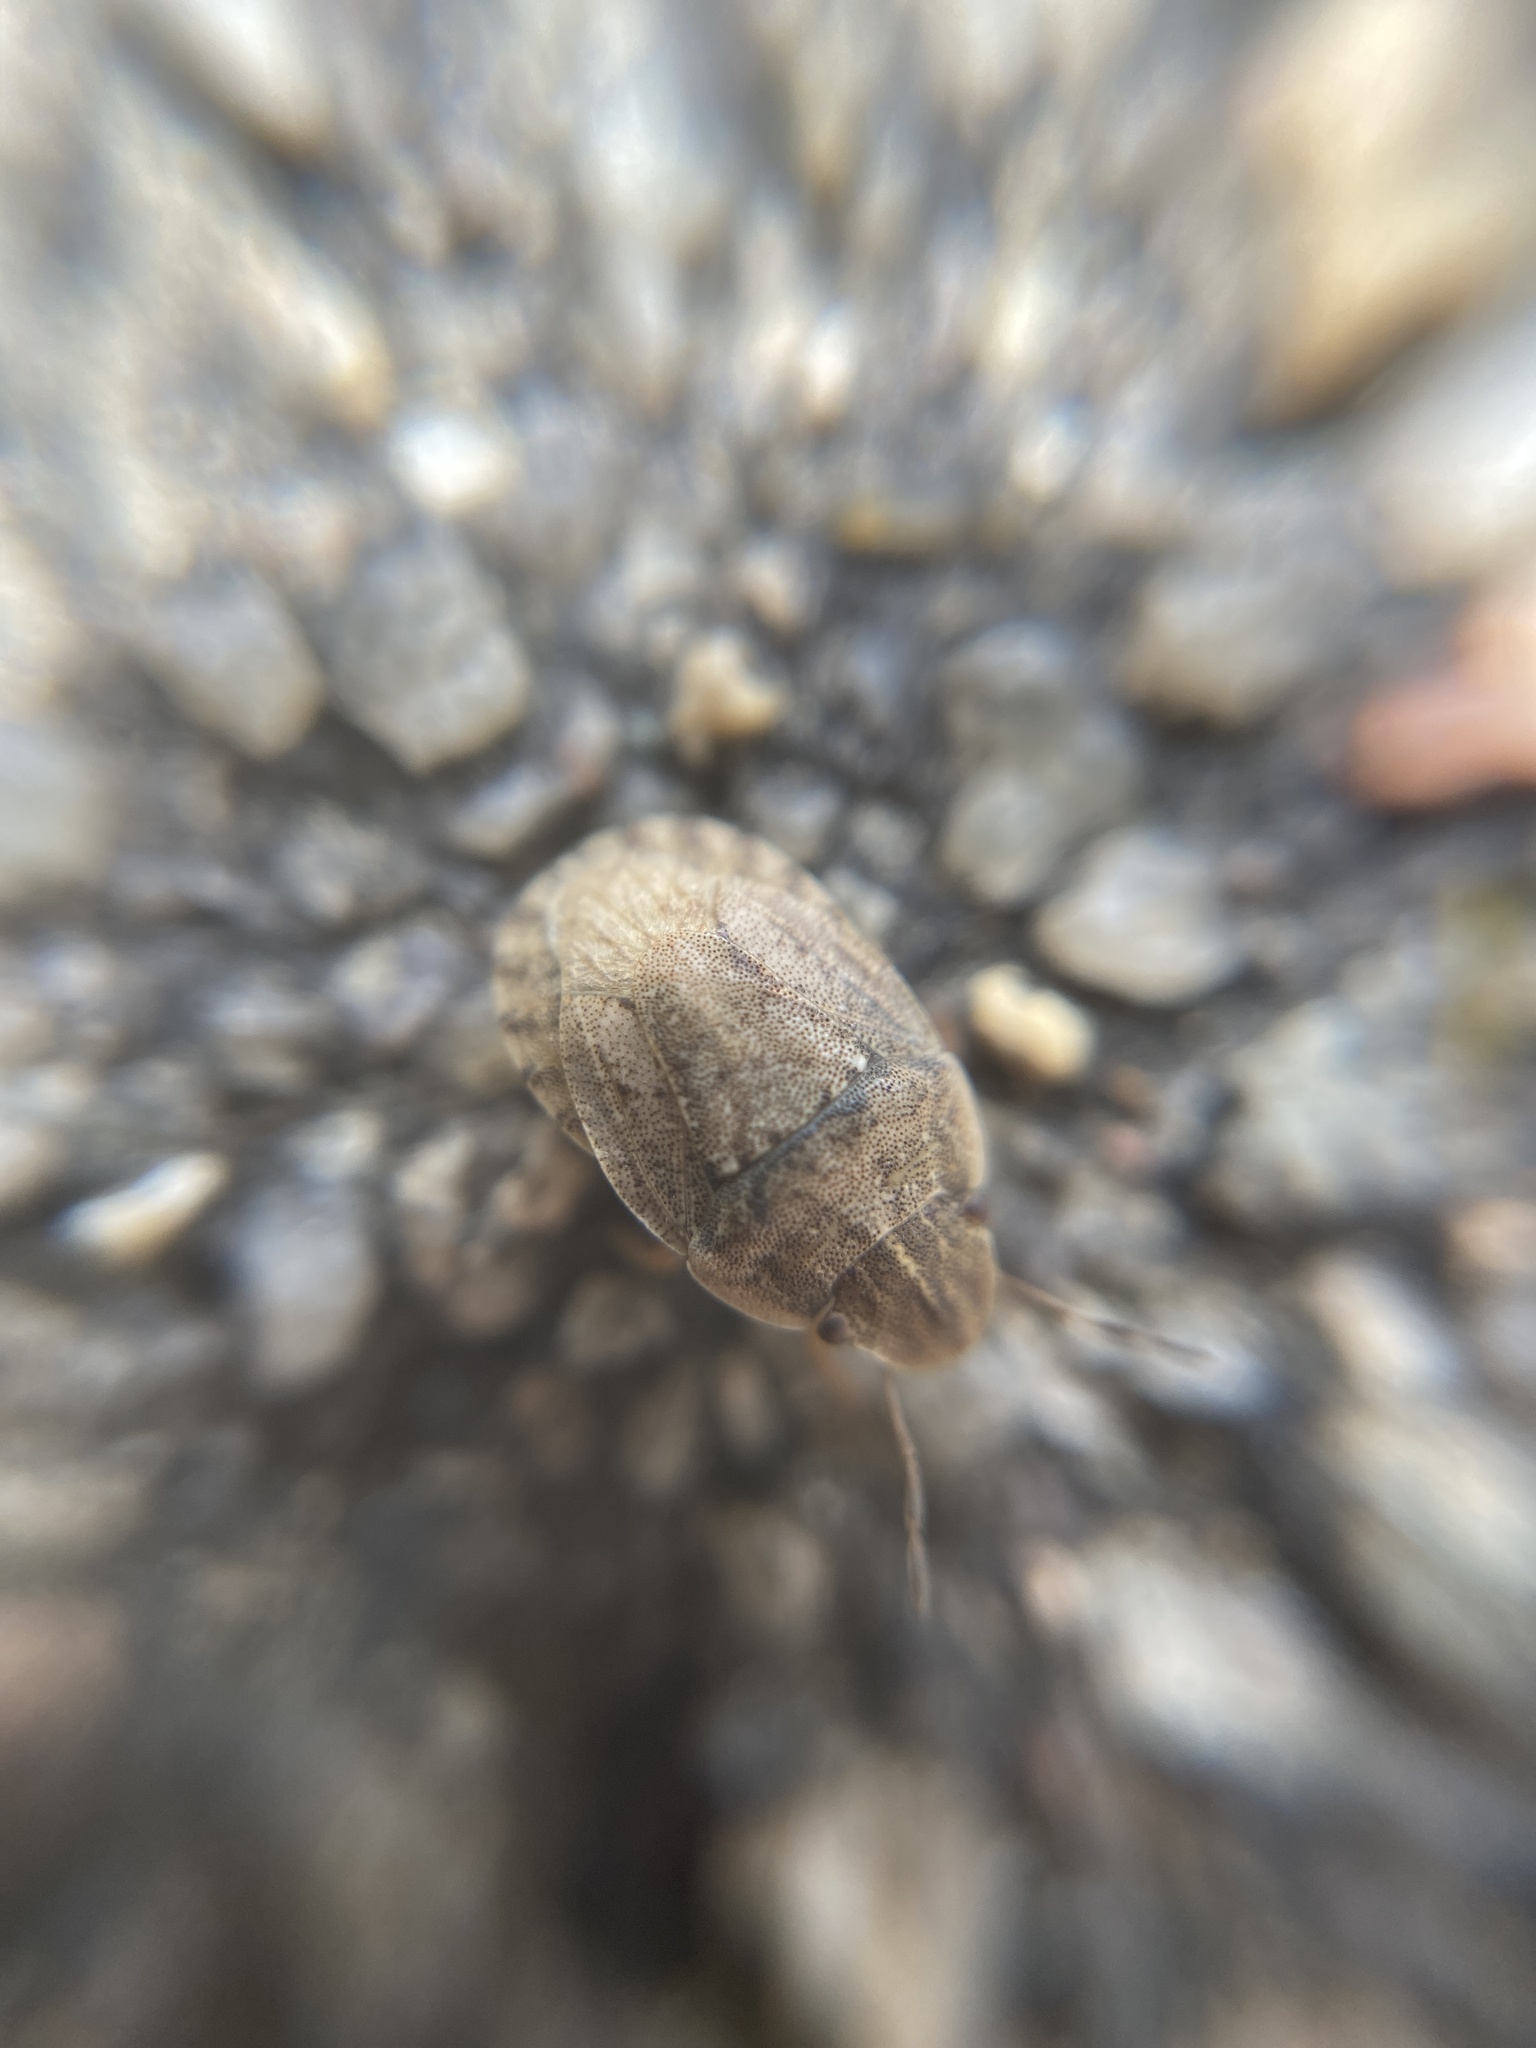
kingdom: Animalia
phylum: Arthropoda
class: Insecta
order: Hemiptera
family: Pentatomidae
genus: Sciocoris
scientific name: Sciocoris cursitans
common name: Sandrunner
